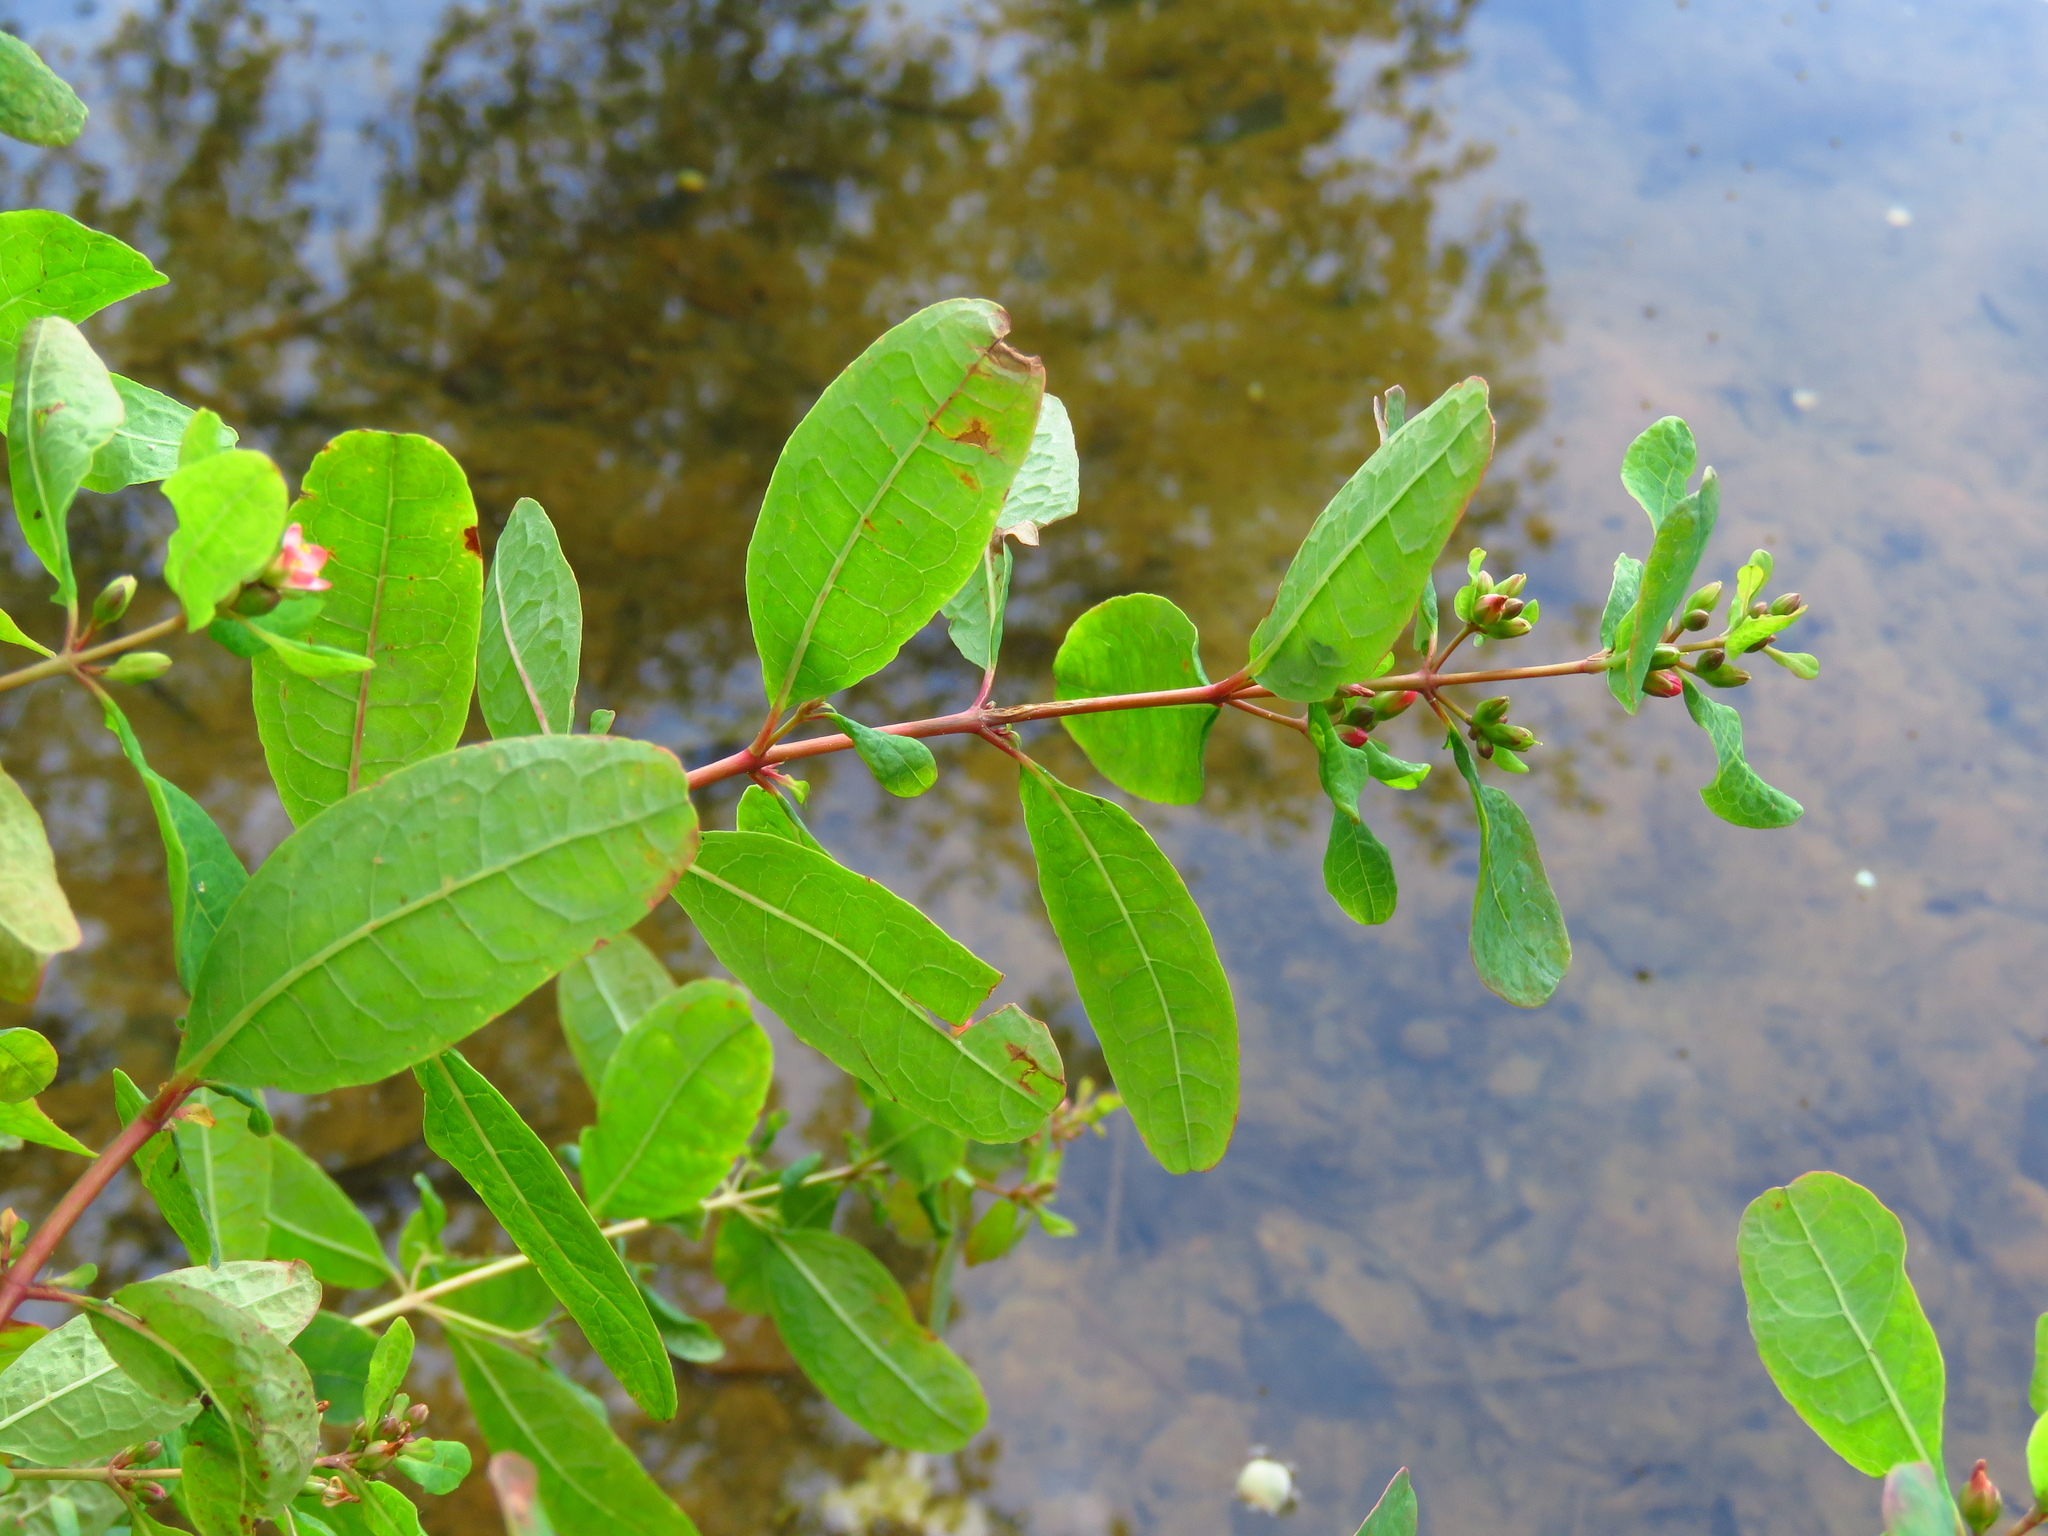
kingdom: Plantae
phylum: Tracheophyta
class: Magnoliopsida
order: Malpighiales
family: Hypericaceae
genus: Triadenum
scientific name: Triadenum walteri
